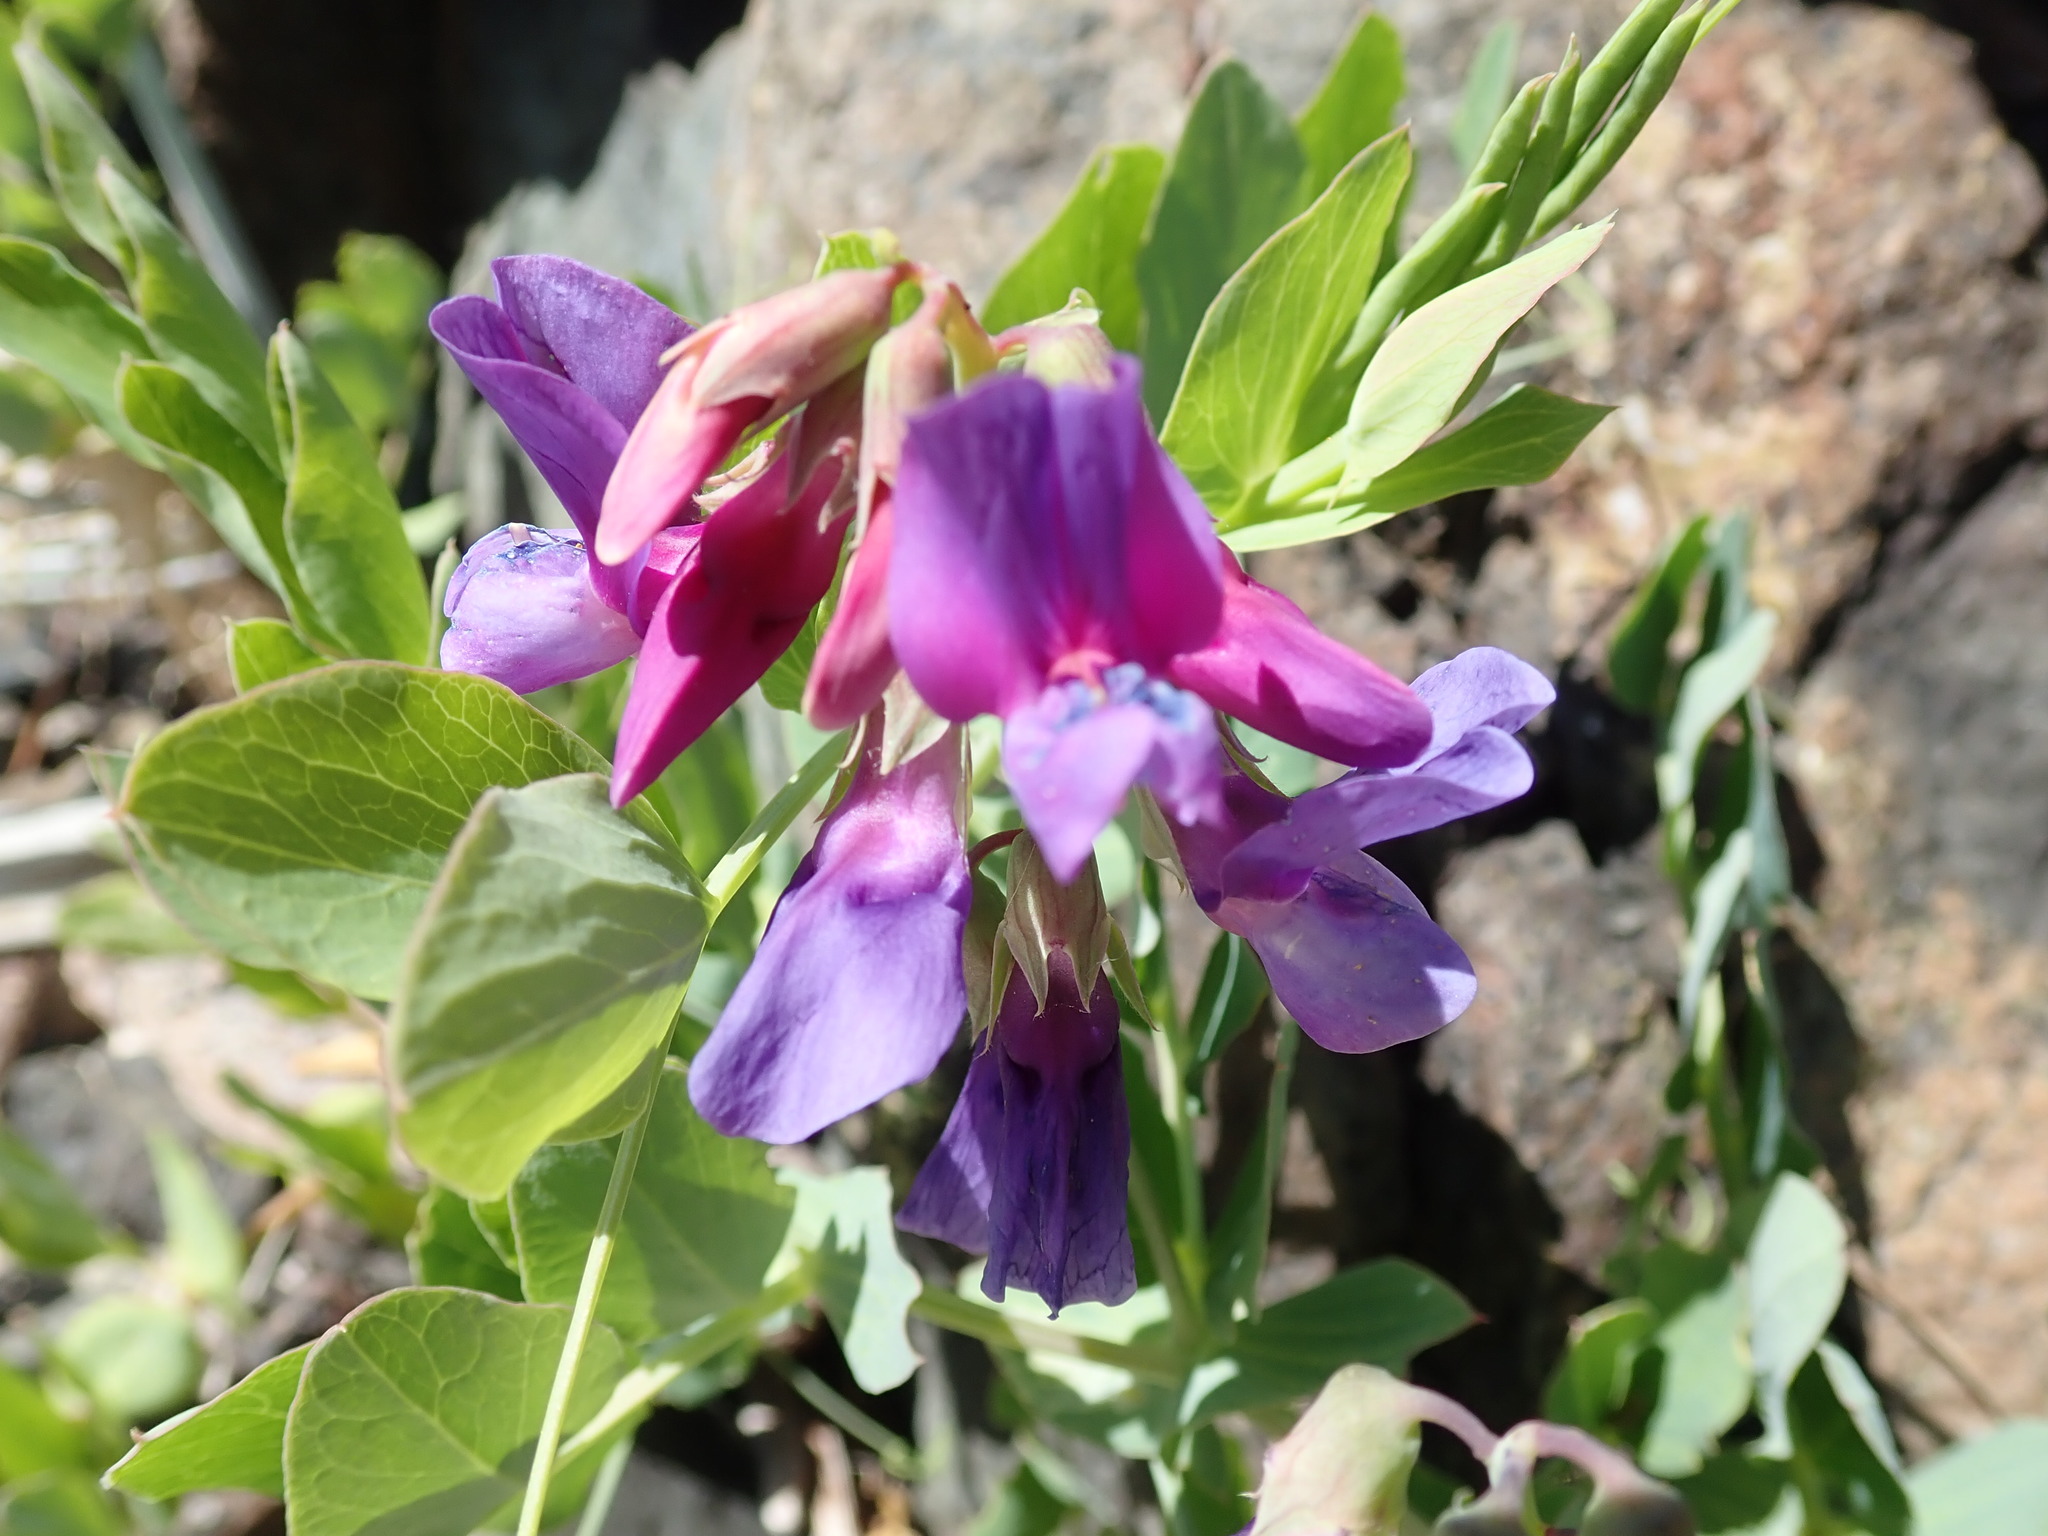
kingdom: Plantae
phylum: Tracheophyta
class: Magnoliopsida
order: Fabales
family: Fabaceae
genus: Lathyrus
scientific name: Lathyrus japonicus
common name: Sea pea
